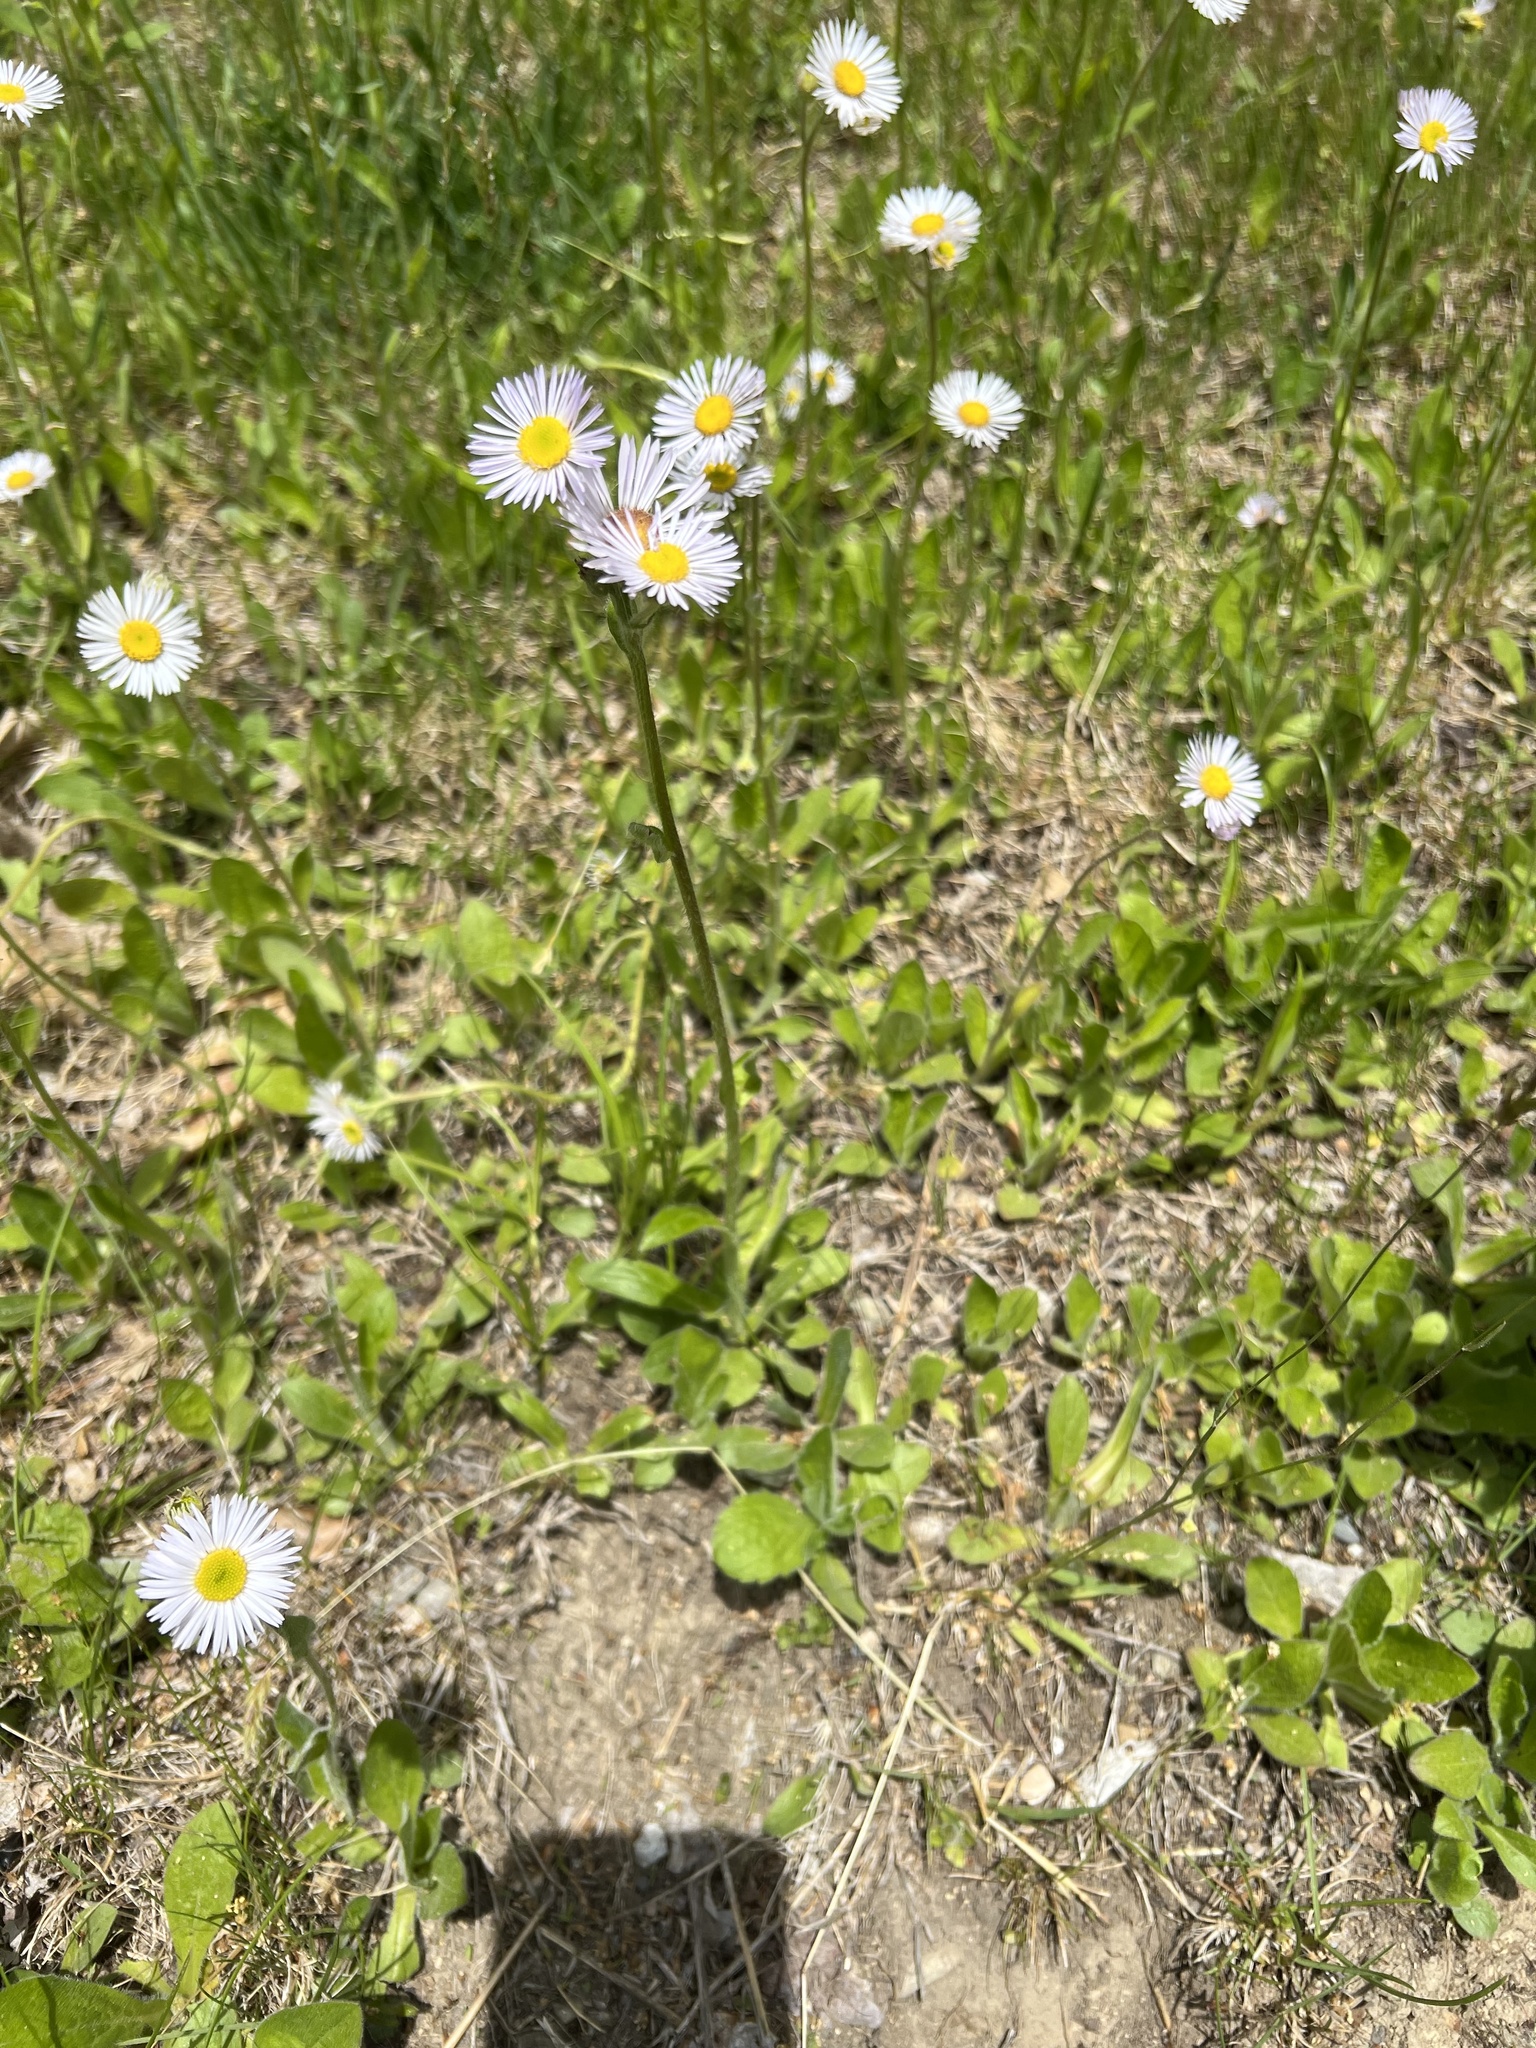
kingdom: Plantae
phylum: Tracheophyta
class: Magnoliopsida
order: Asterales
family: Asteraceae
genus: Erigeron
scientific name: Erigeron pulchellus
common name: Hairy fleabane
